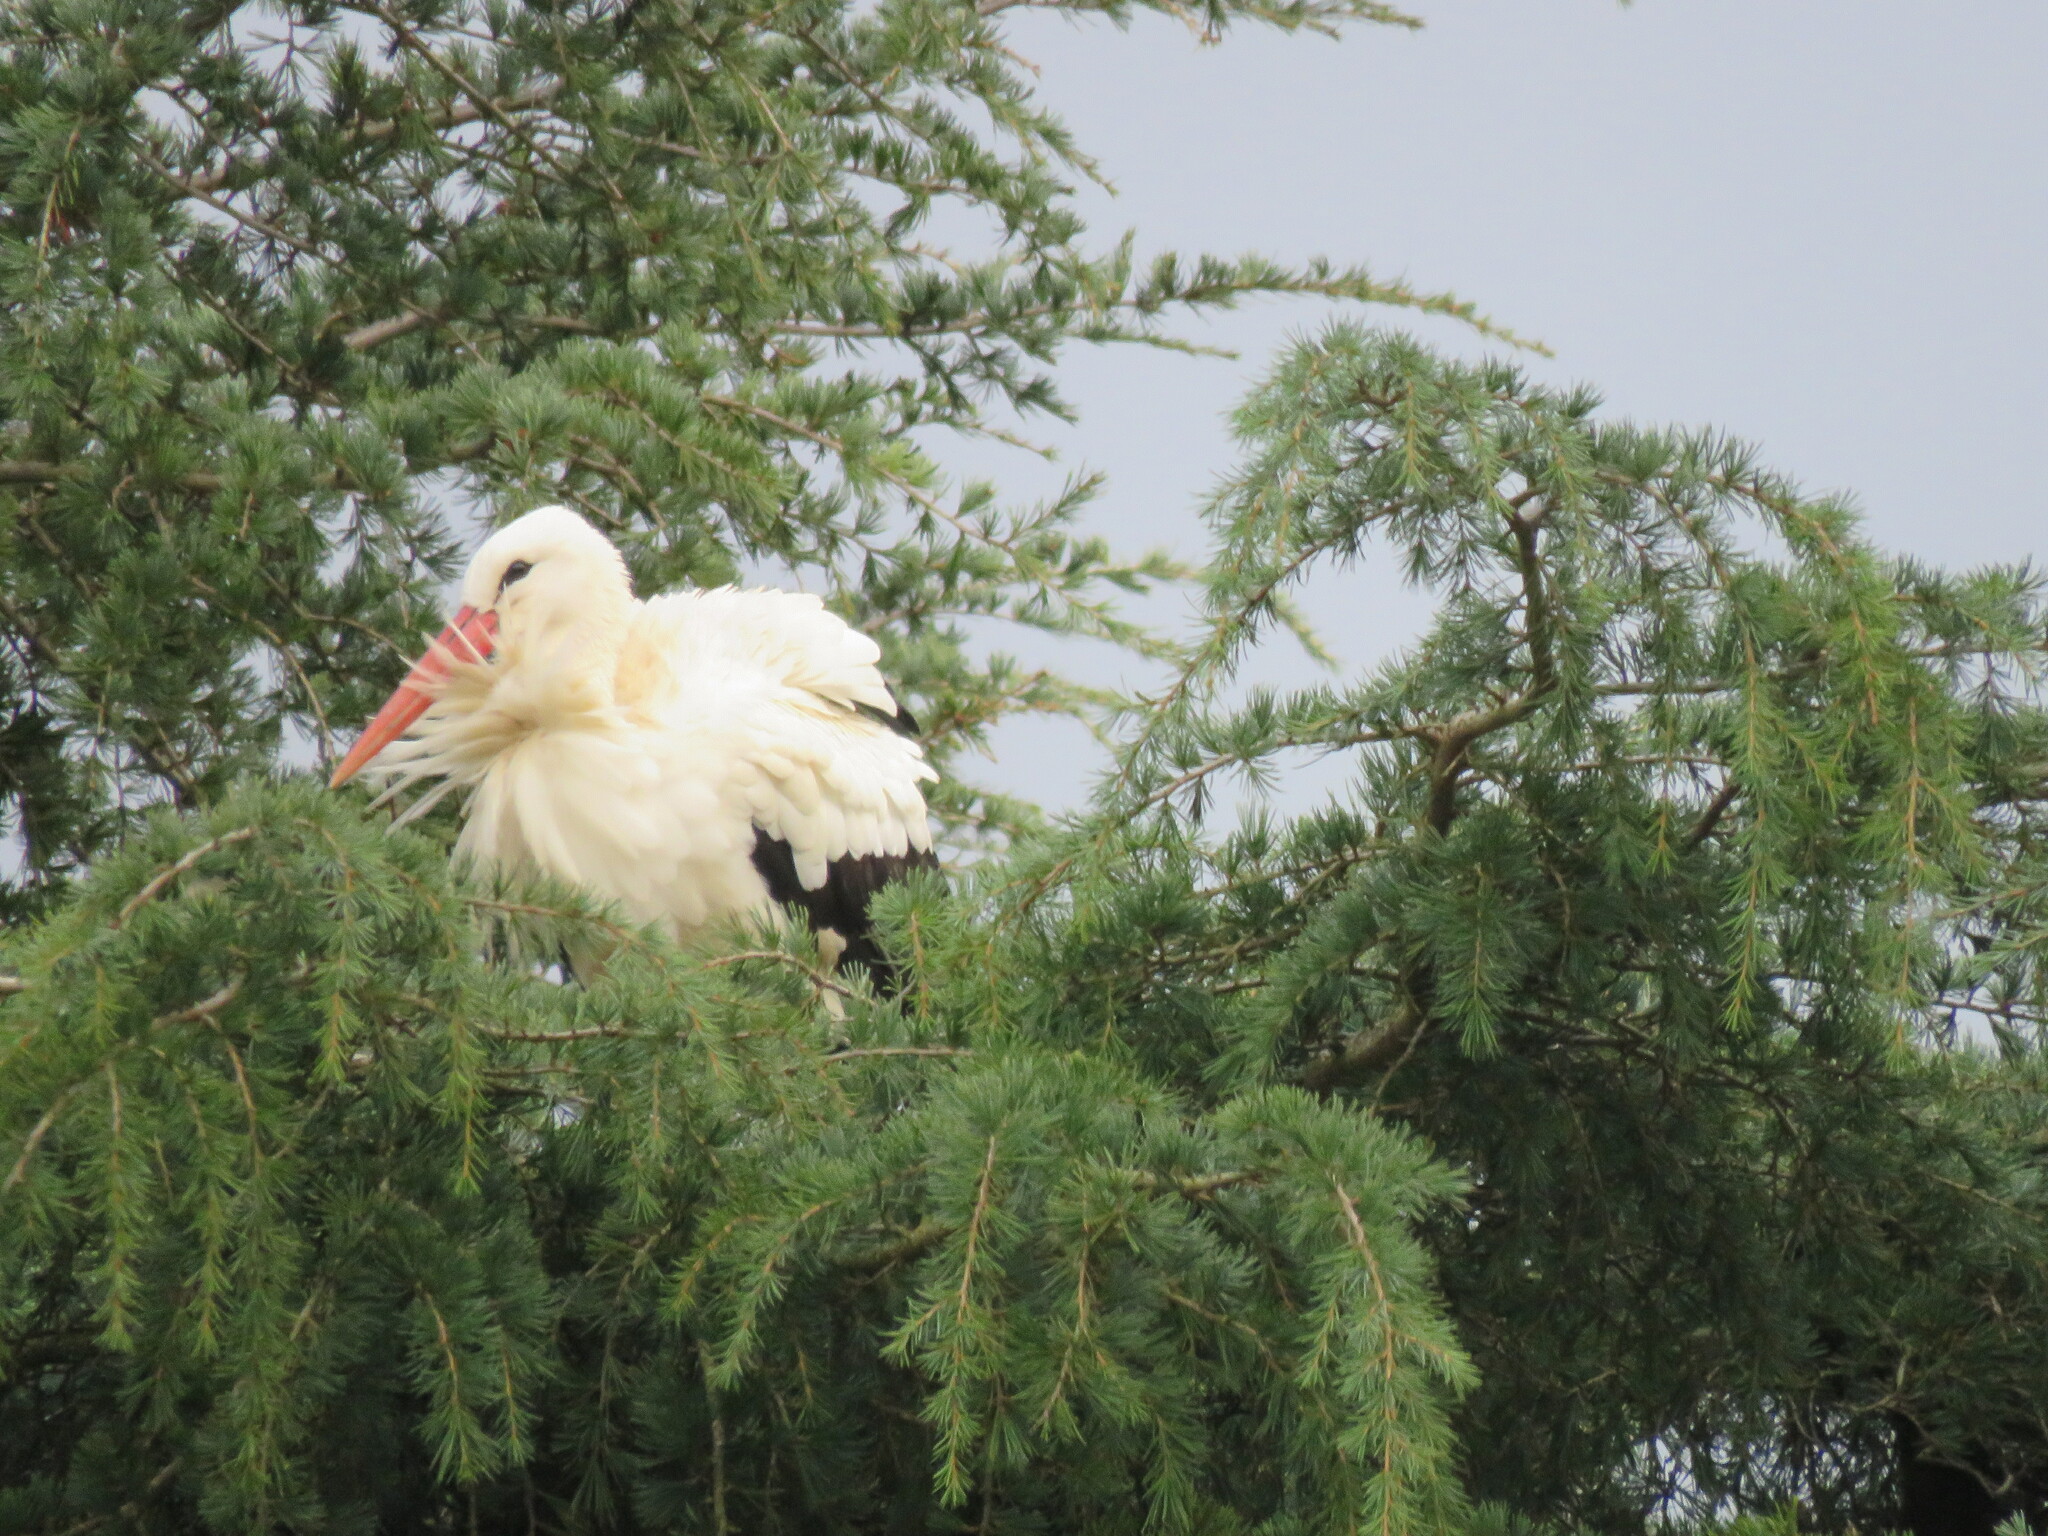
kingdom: Animalia
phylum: Chordata
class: Aves
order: Ciconiiformes
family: Ciconiidae
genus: Ciconia
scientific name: Ciconia ciconia
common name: White stork
